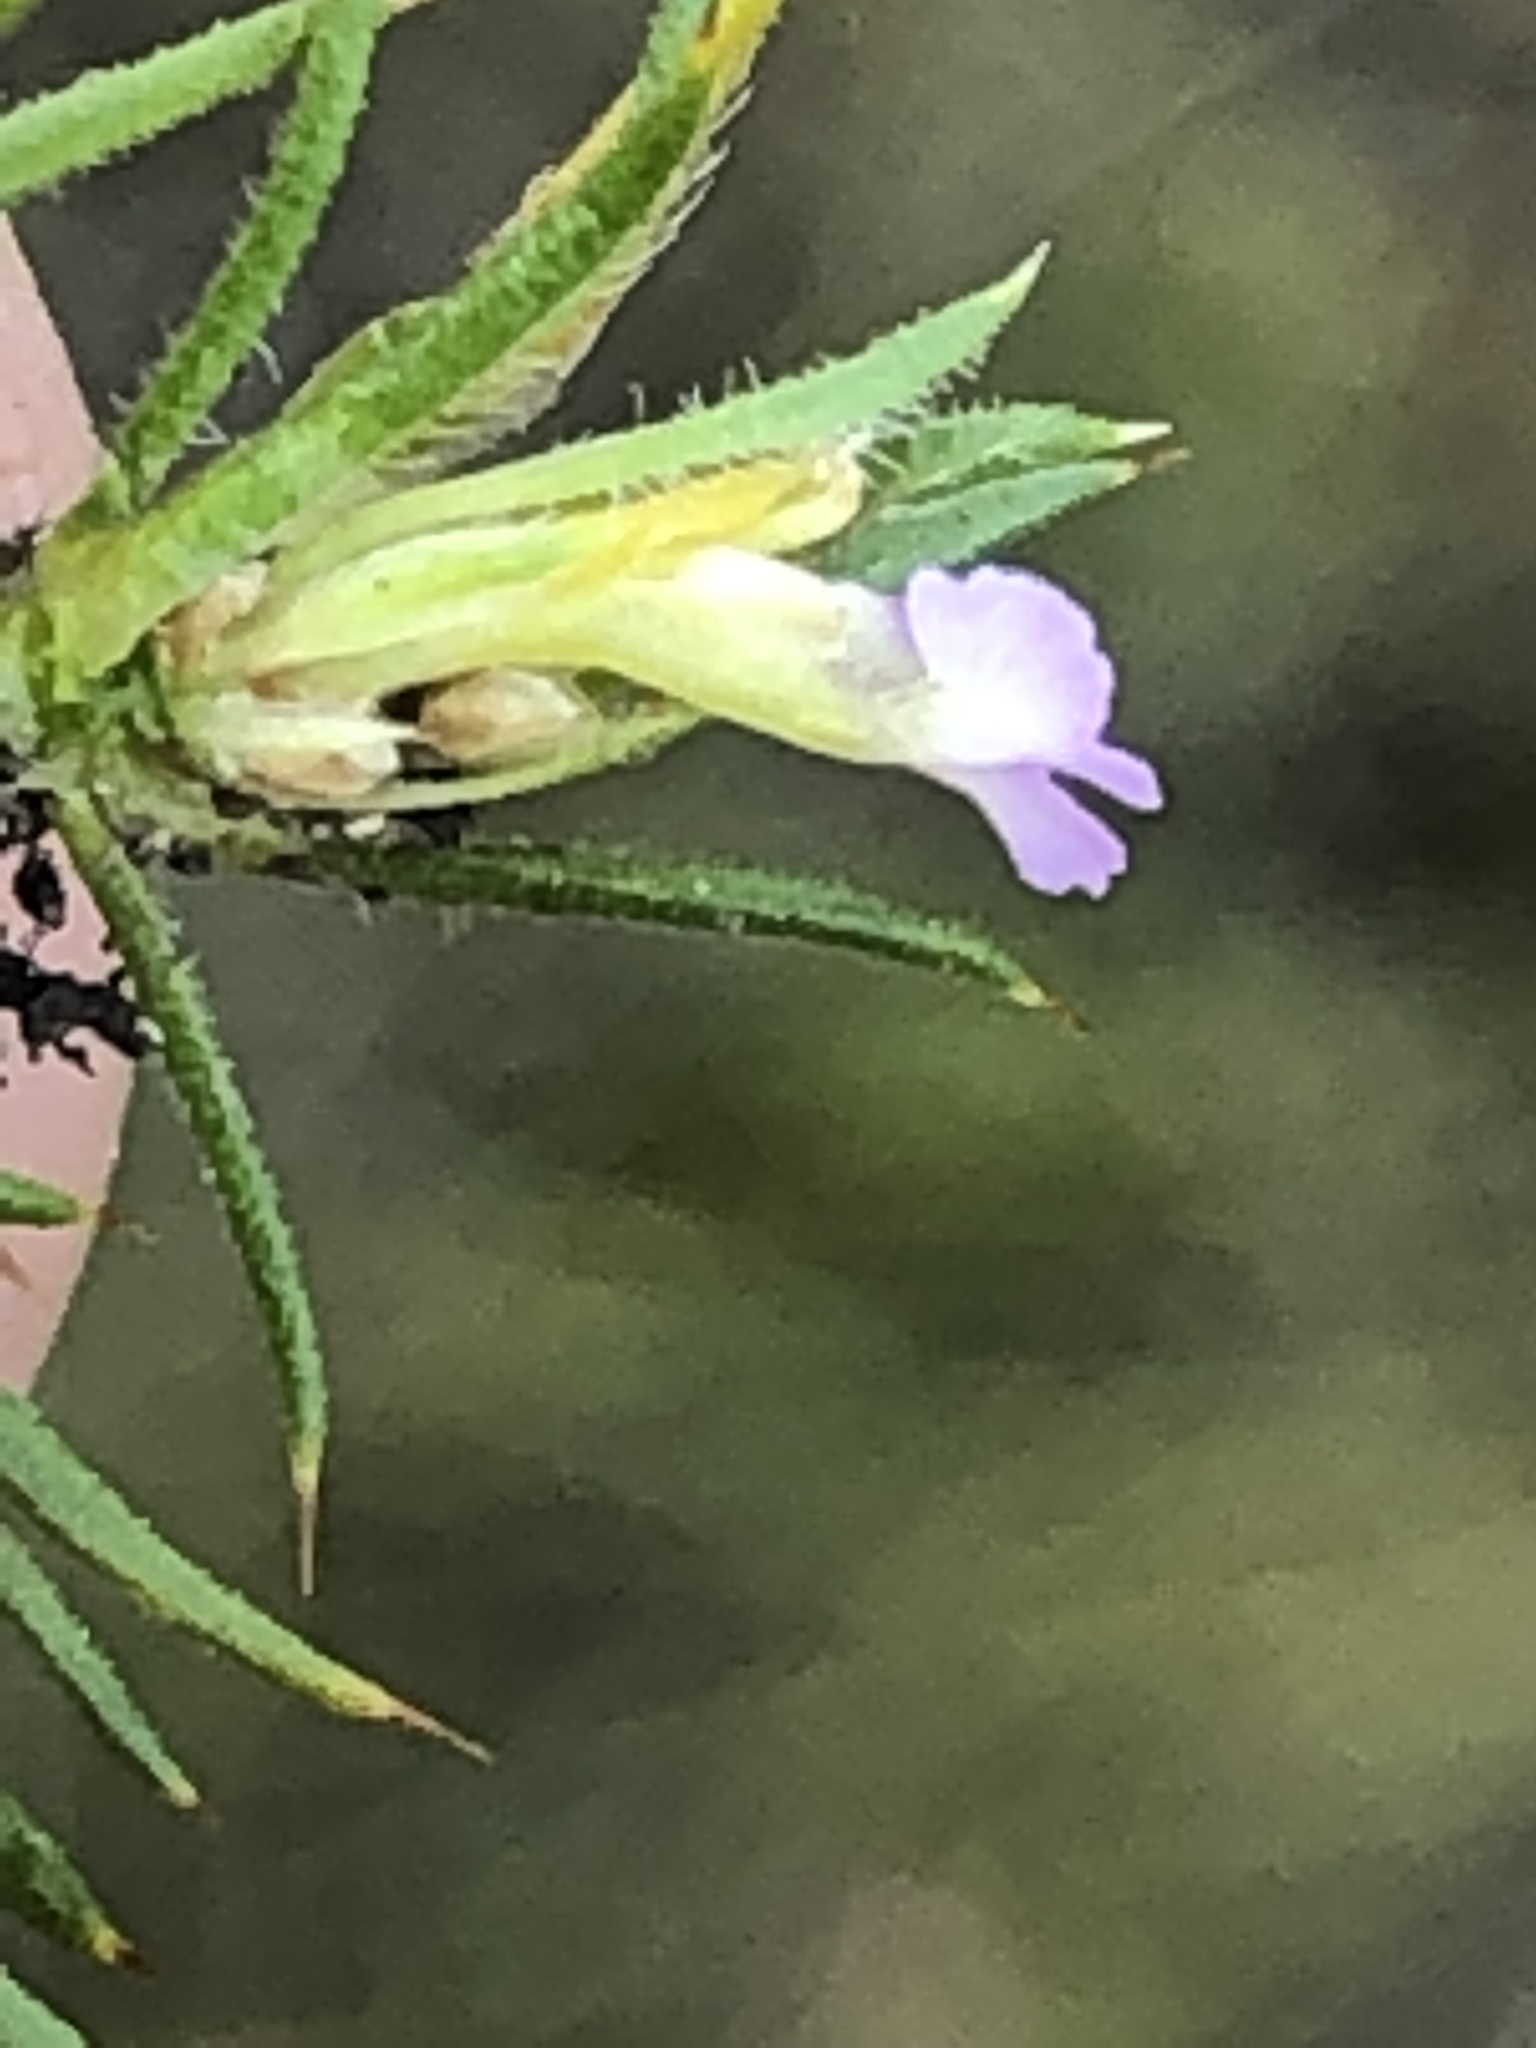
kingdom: Plantae
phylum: Tracheophyta
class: Magnoliopsida
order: Fabales
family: Polygalaceae
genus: Muraltia
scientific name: Muraltia ciliaris
